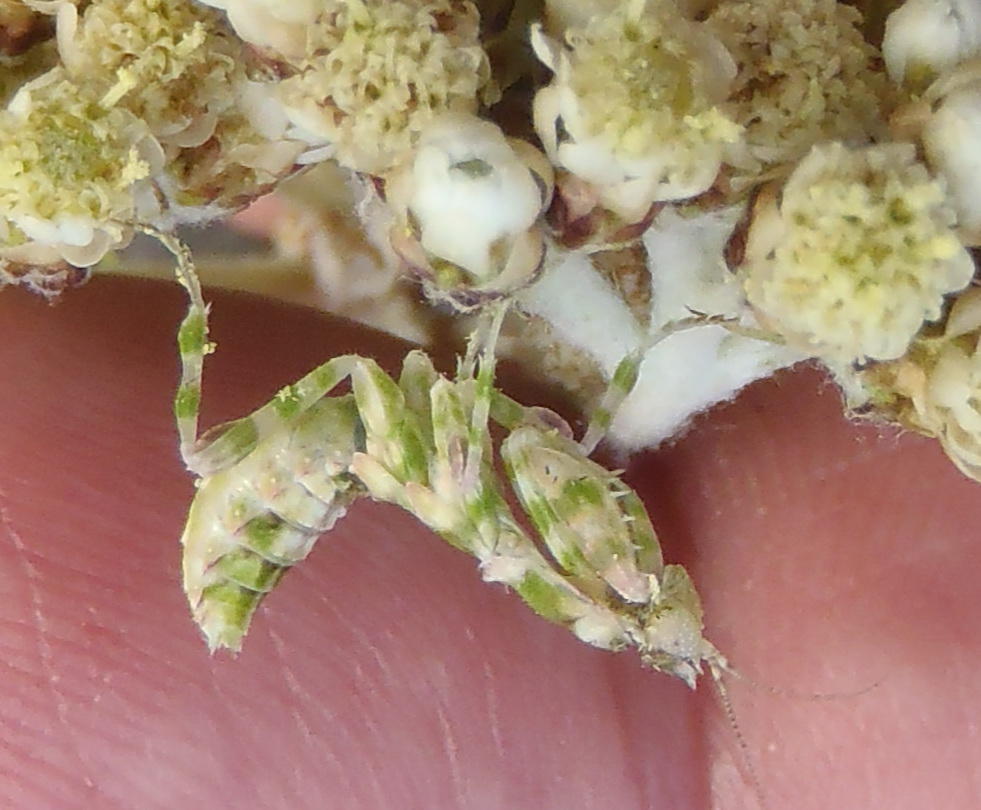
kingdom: Animalia
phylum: Arthropoda
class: Insecta
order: Mantodea
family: Galinthiadidae
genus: Harpagomantis
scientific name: Harpagomantis tricolor
